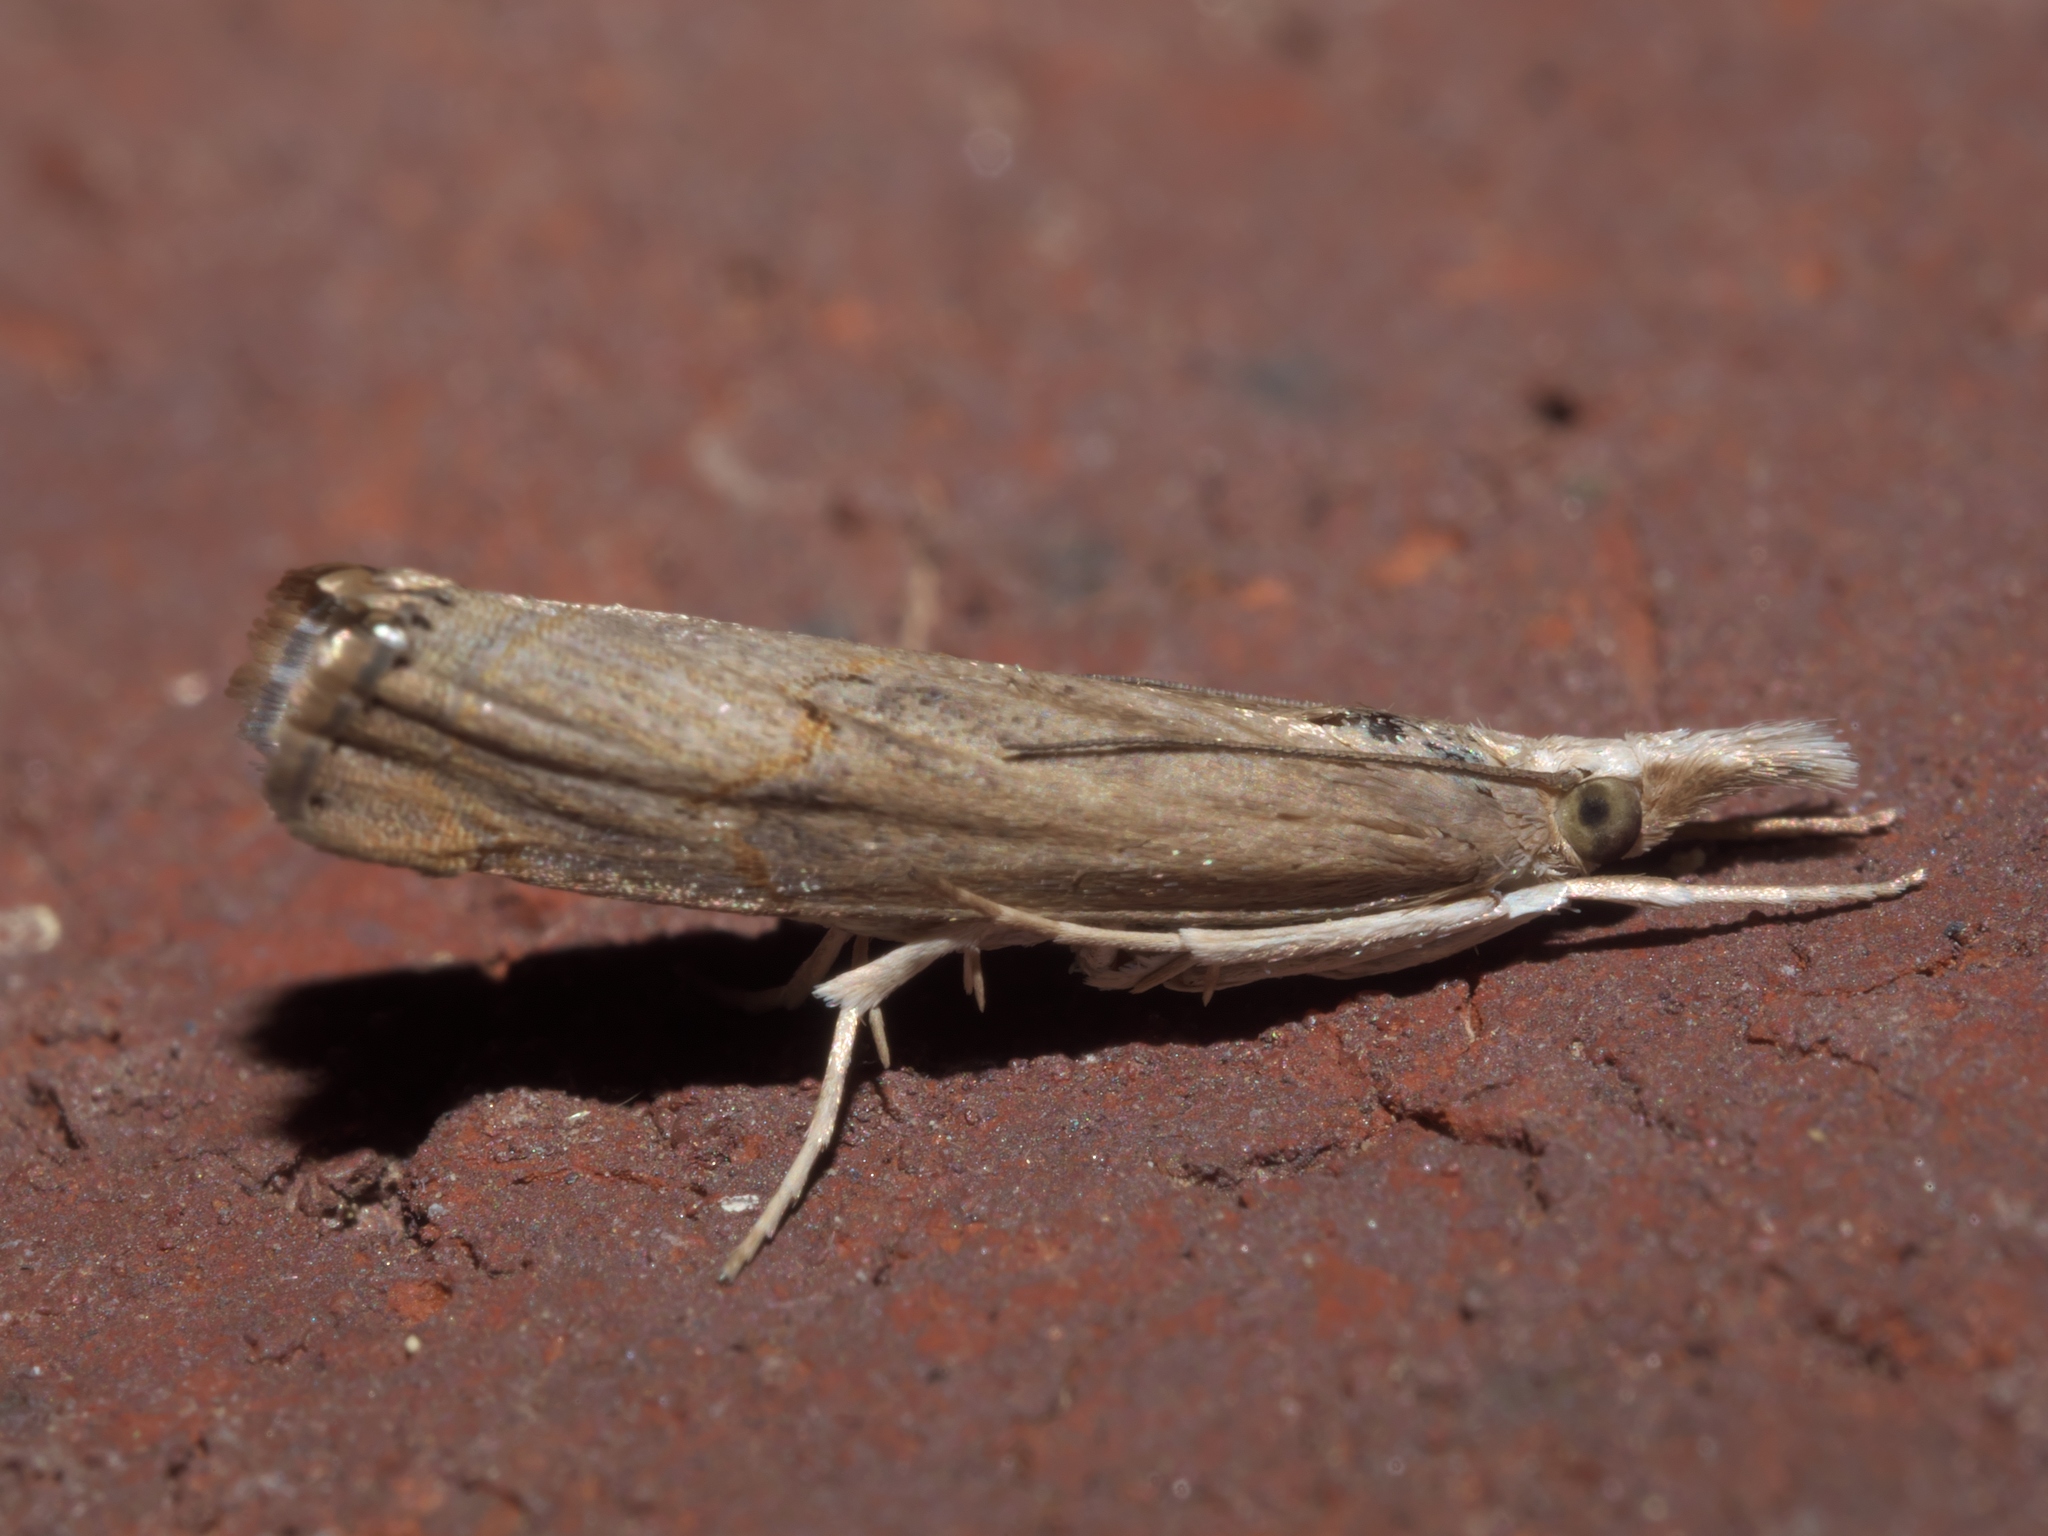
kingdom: Animalia
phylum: Arthropoda
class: Insecta
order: Lepidoptera
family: Crambidae
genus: Parapediasia
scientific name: Parapediasia teterellus
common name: Bluegrass webworm moth
